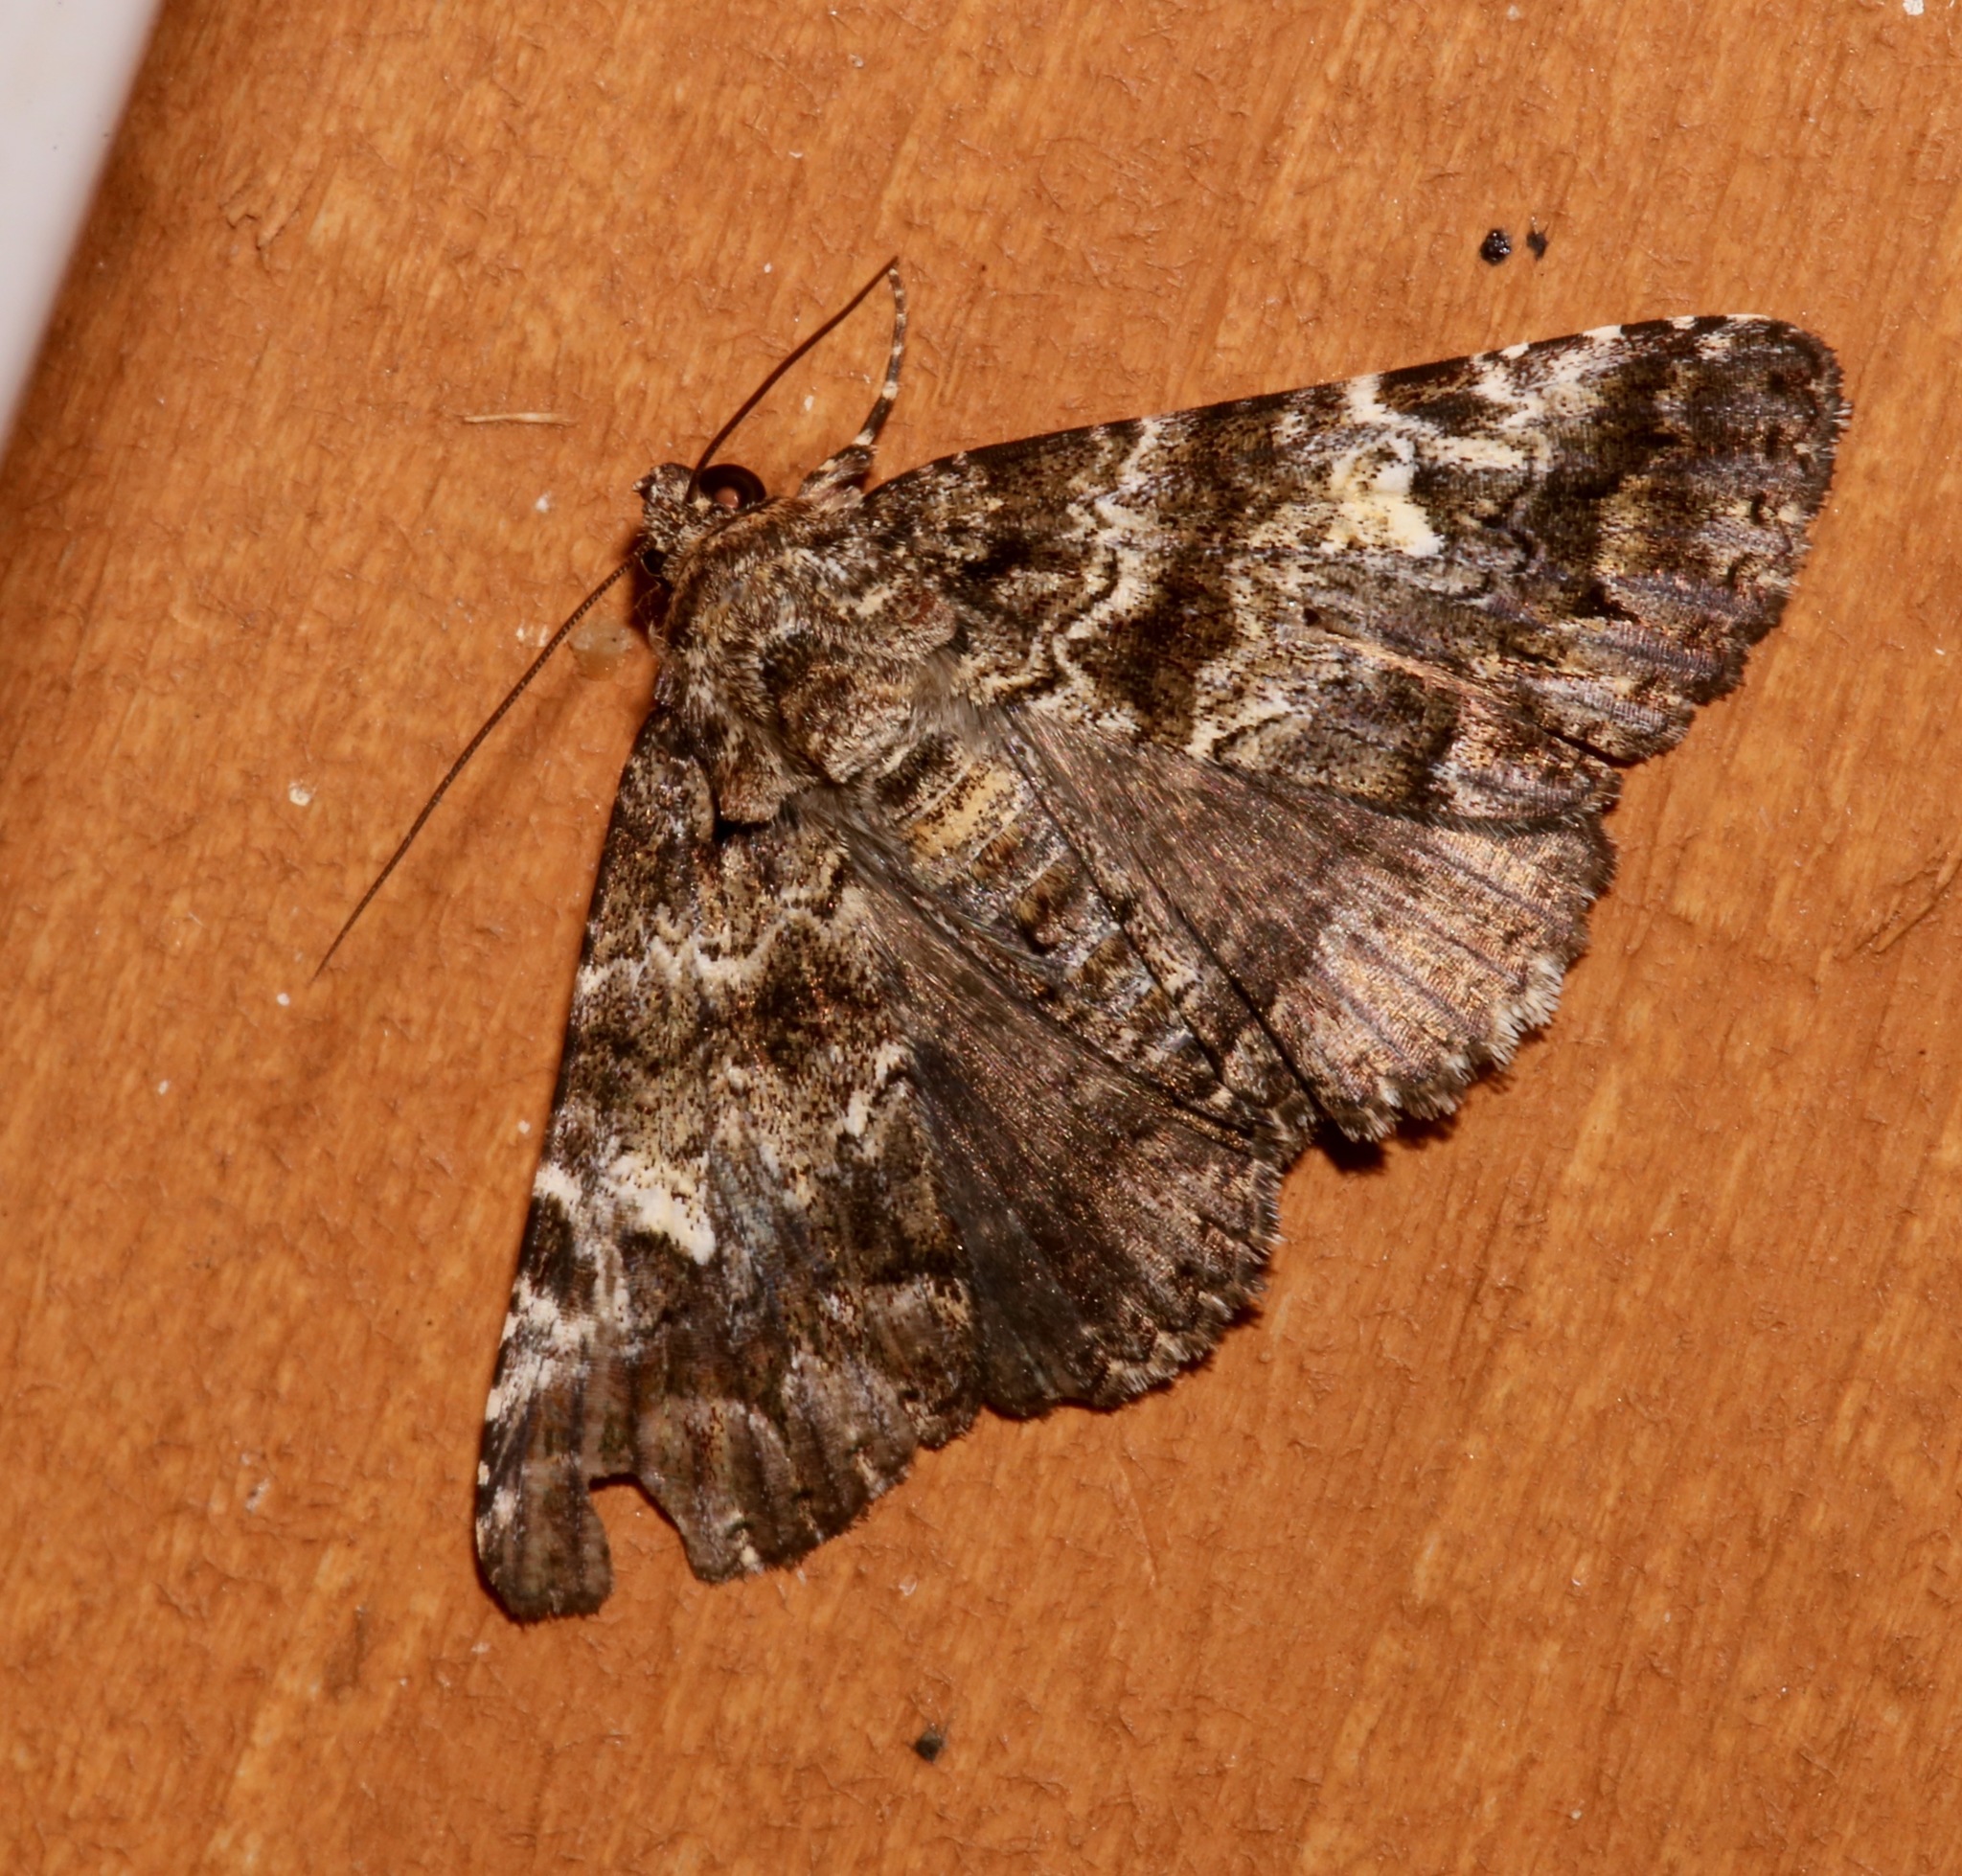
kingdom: Animalia
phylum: Arthropoda
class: Insecta
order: Lepidoptera
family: Erebidae
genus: Metria
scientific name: Metria amella
